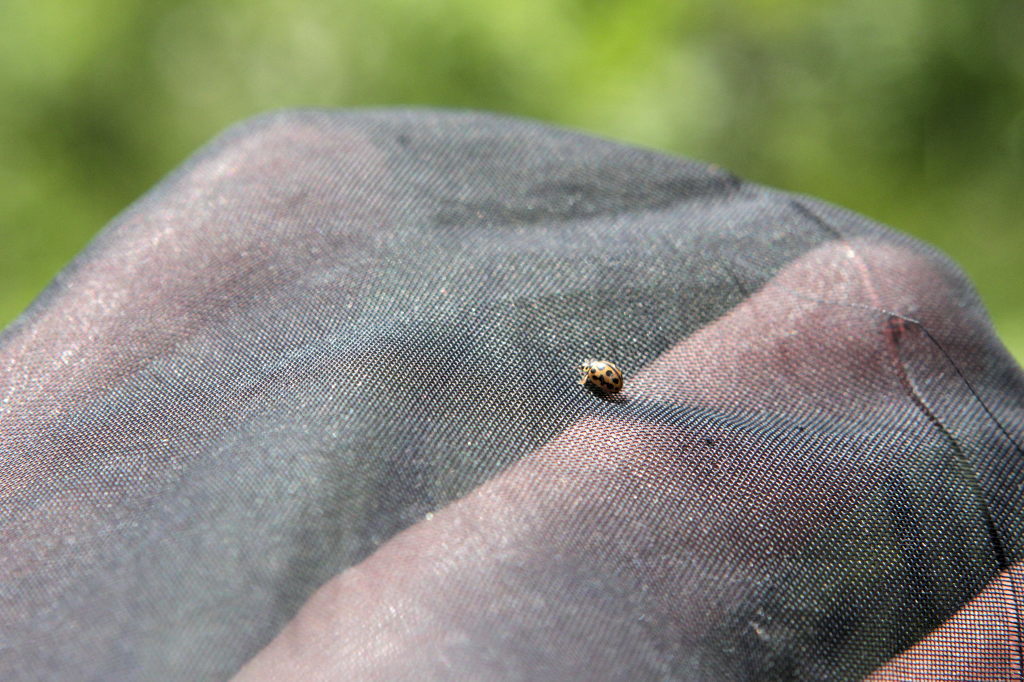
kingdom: Animalia
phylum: Arthropoda
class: Insecta
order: Coleoptera
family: Coccinellidae
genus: Tytthaspis
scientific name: Tytthaspis sedecimpunctata
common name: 16-spot ladybird
